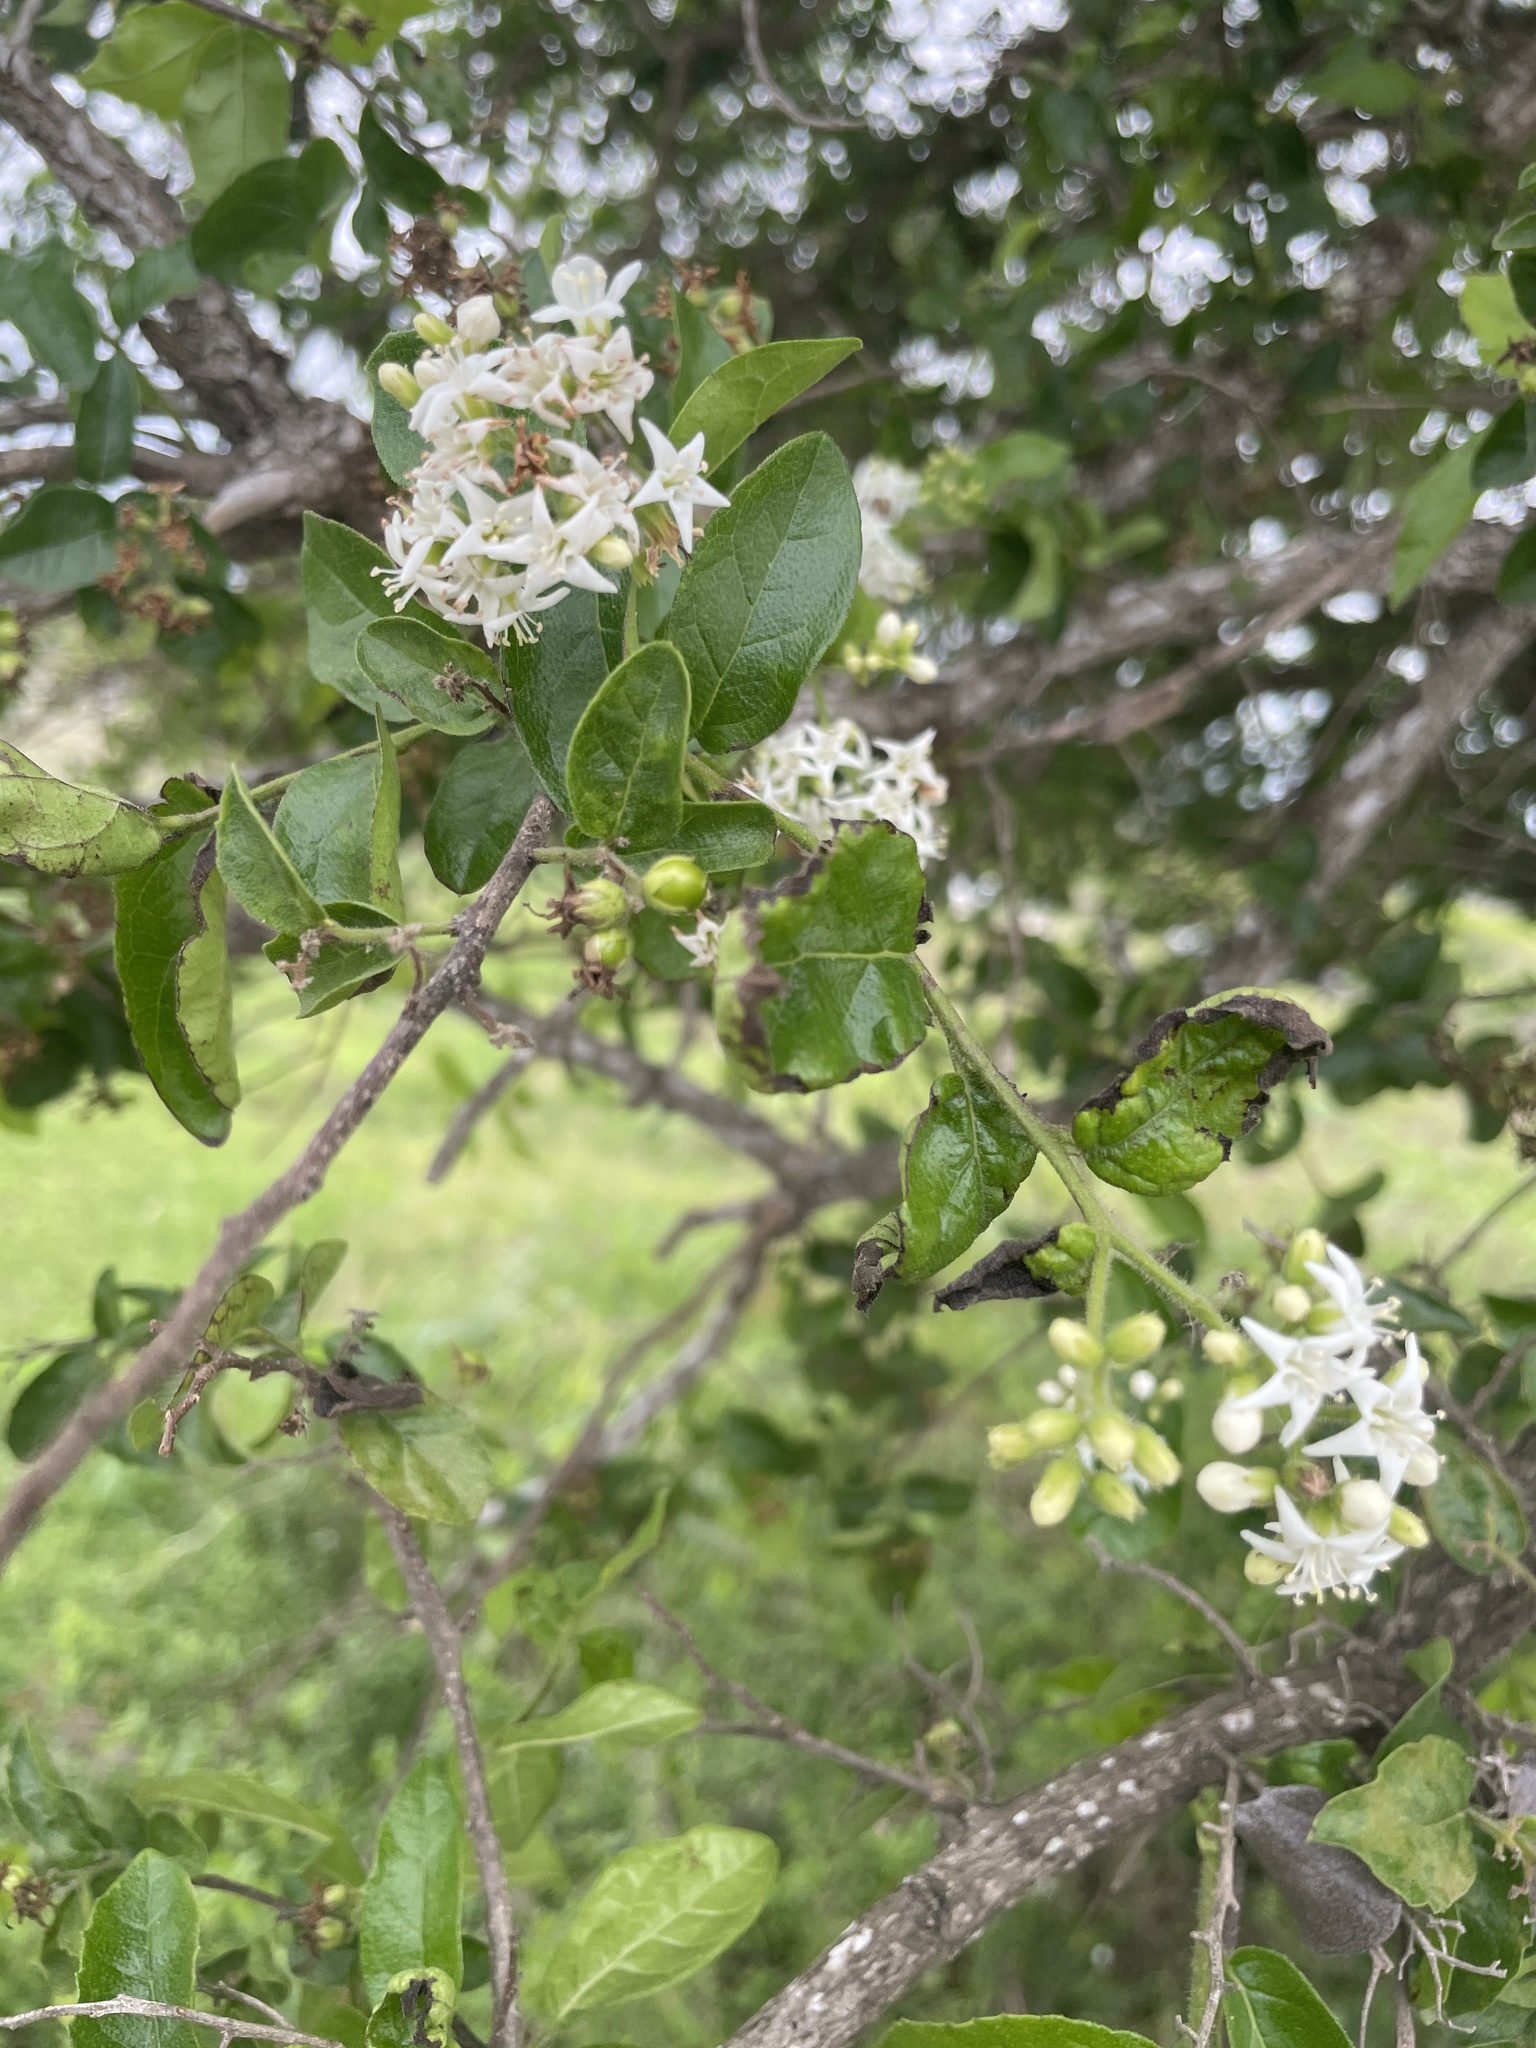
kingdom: Plantae
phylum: Tracheophyta
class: Magnoliopsida
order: Boraginales
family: Ehretiaceae
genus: Ehretia
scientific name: Ehretia anacua
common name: Sugarberry
